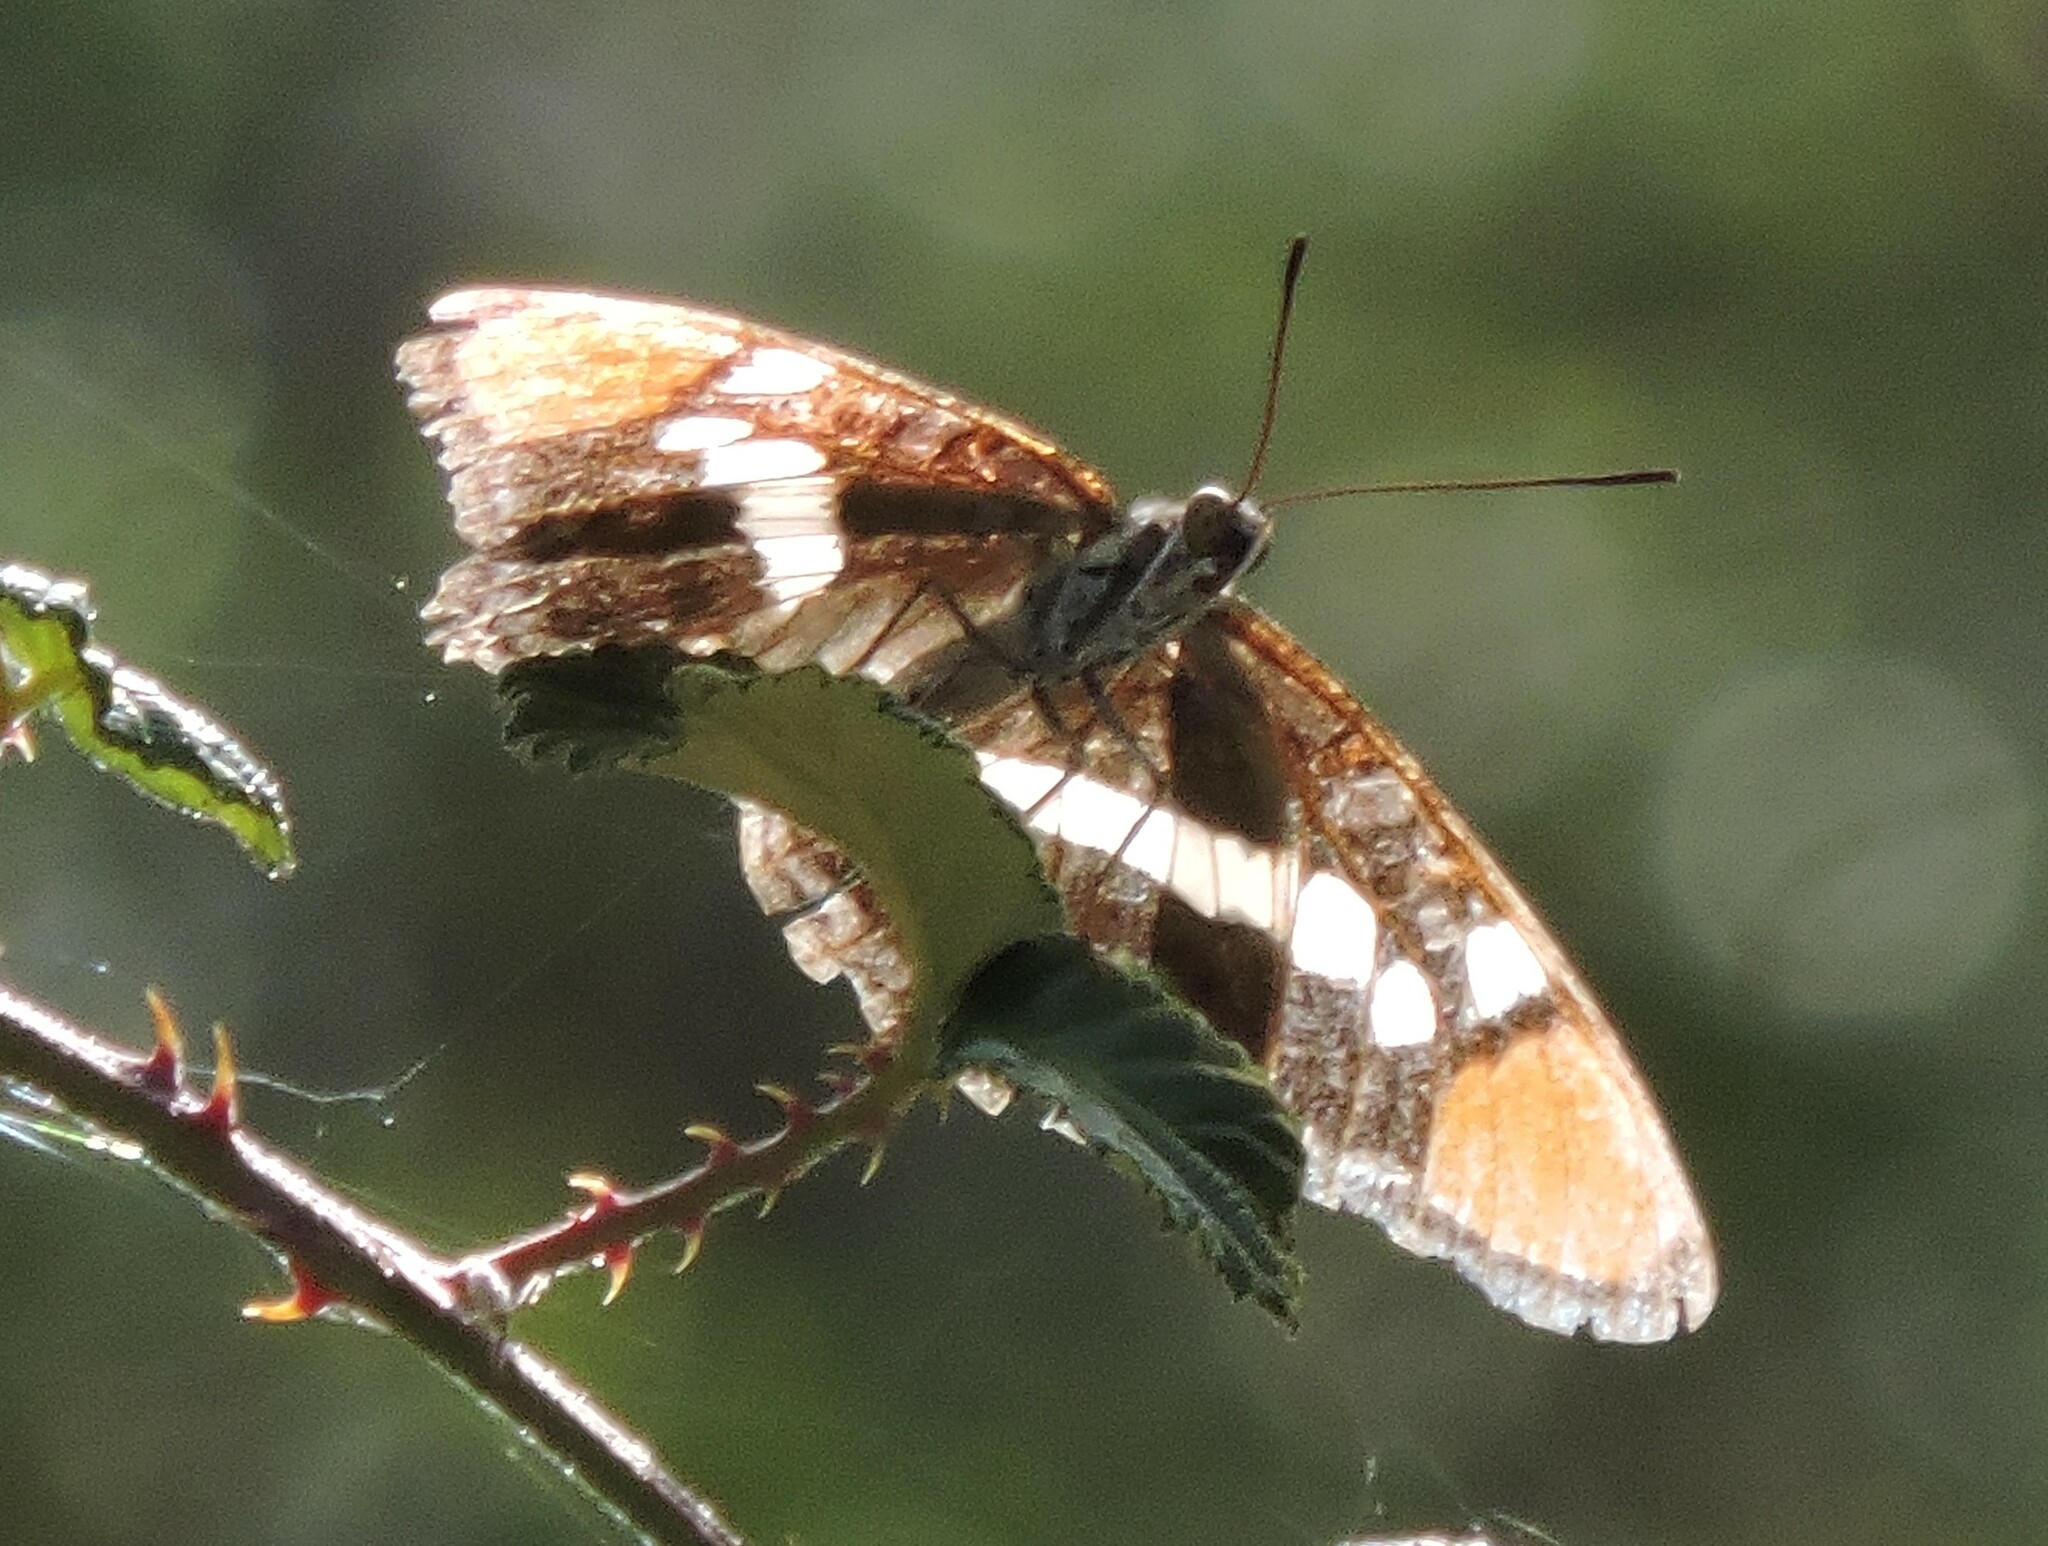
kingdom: Animalia
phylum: Arthropoda
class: Insecta
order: Lepidoptera
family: Nymphalidae
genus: Limenitis
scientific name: Limenitis bredowii
